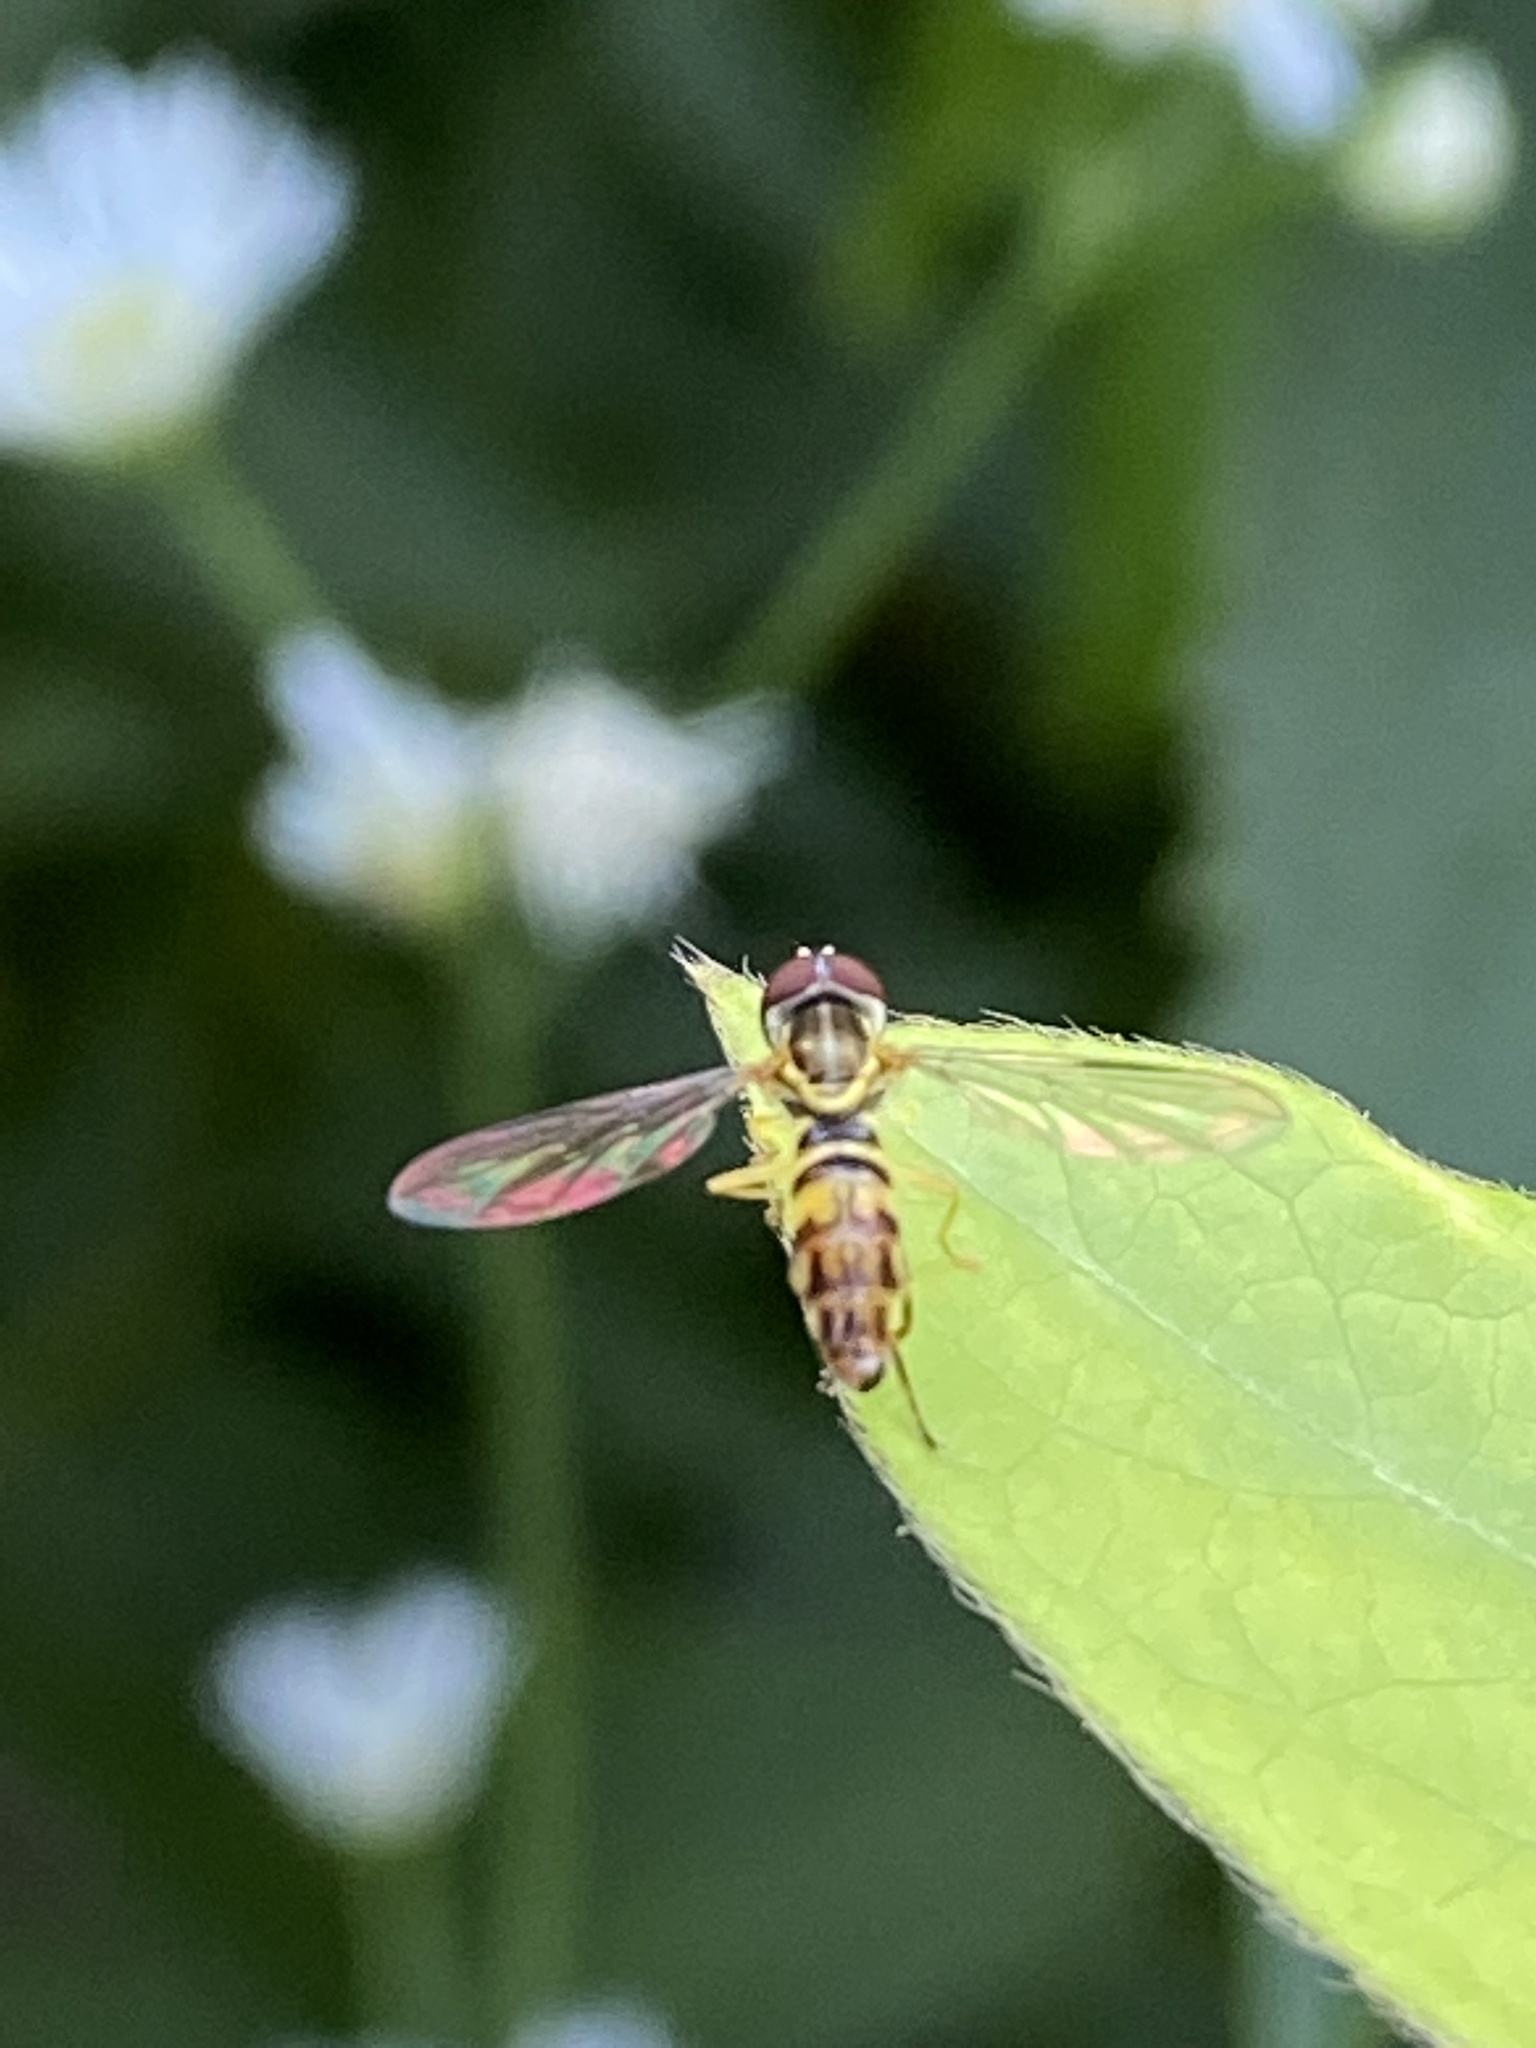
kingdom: Animalia
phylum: Arthropoda
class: Insecta
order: Diptera
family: Syrphidae
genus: Toxomerus
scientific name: Toxomerus geminatus
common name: Eastern calligrapher
